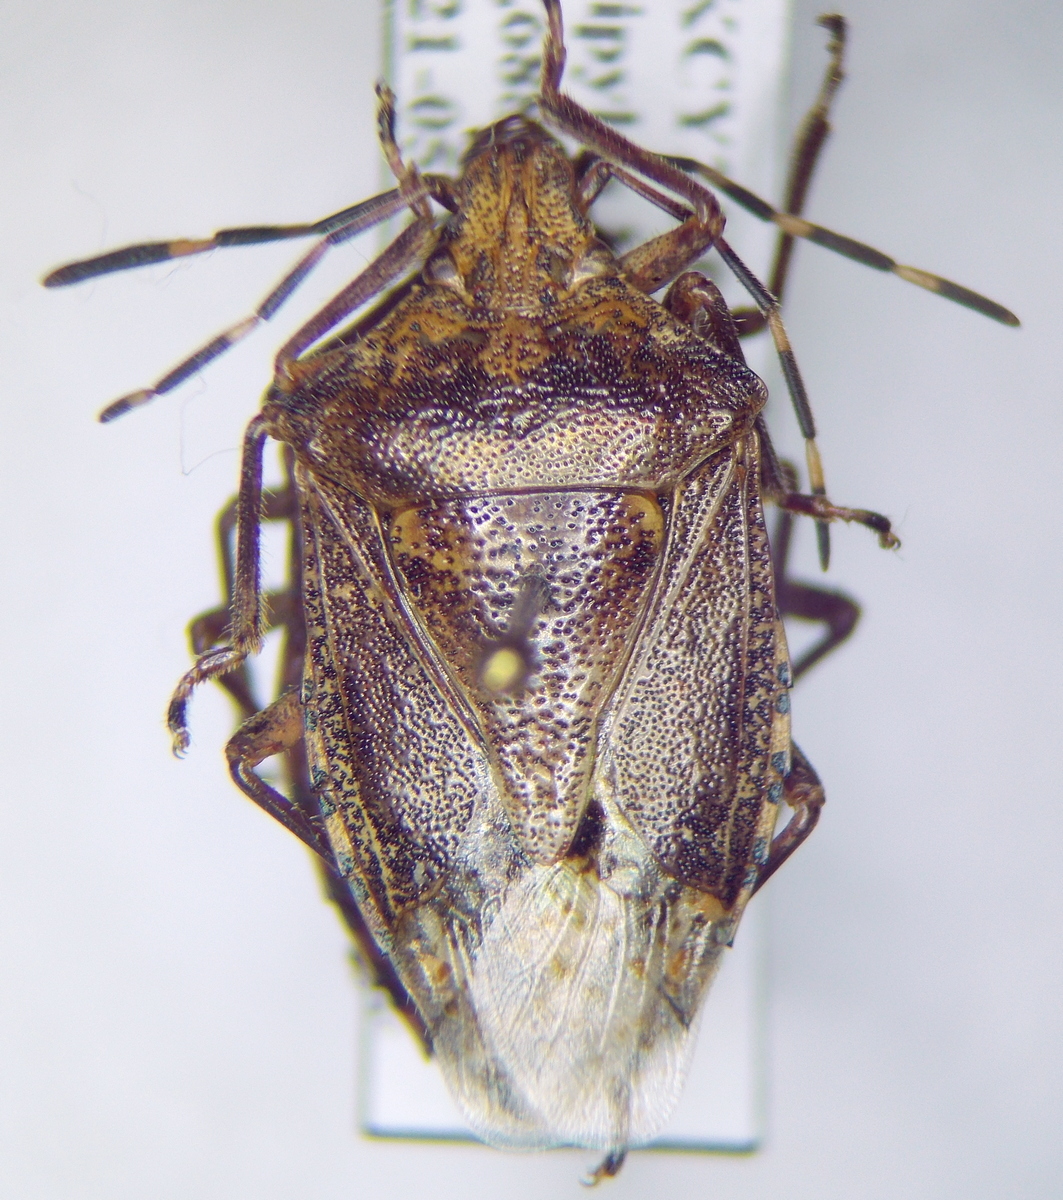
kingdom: Animalia
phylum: Arthropoda
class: Insecta
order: Hemiptera
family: Pentatomidae
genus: Rhaphigaster
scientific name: Rhaphigaster nebulosa
